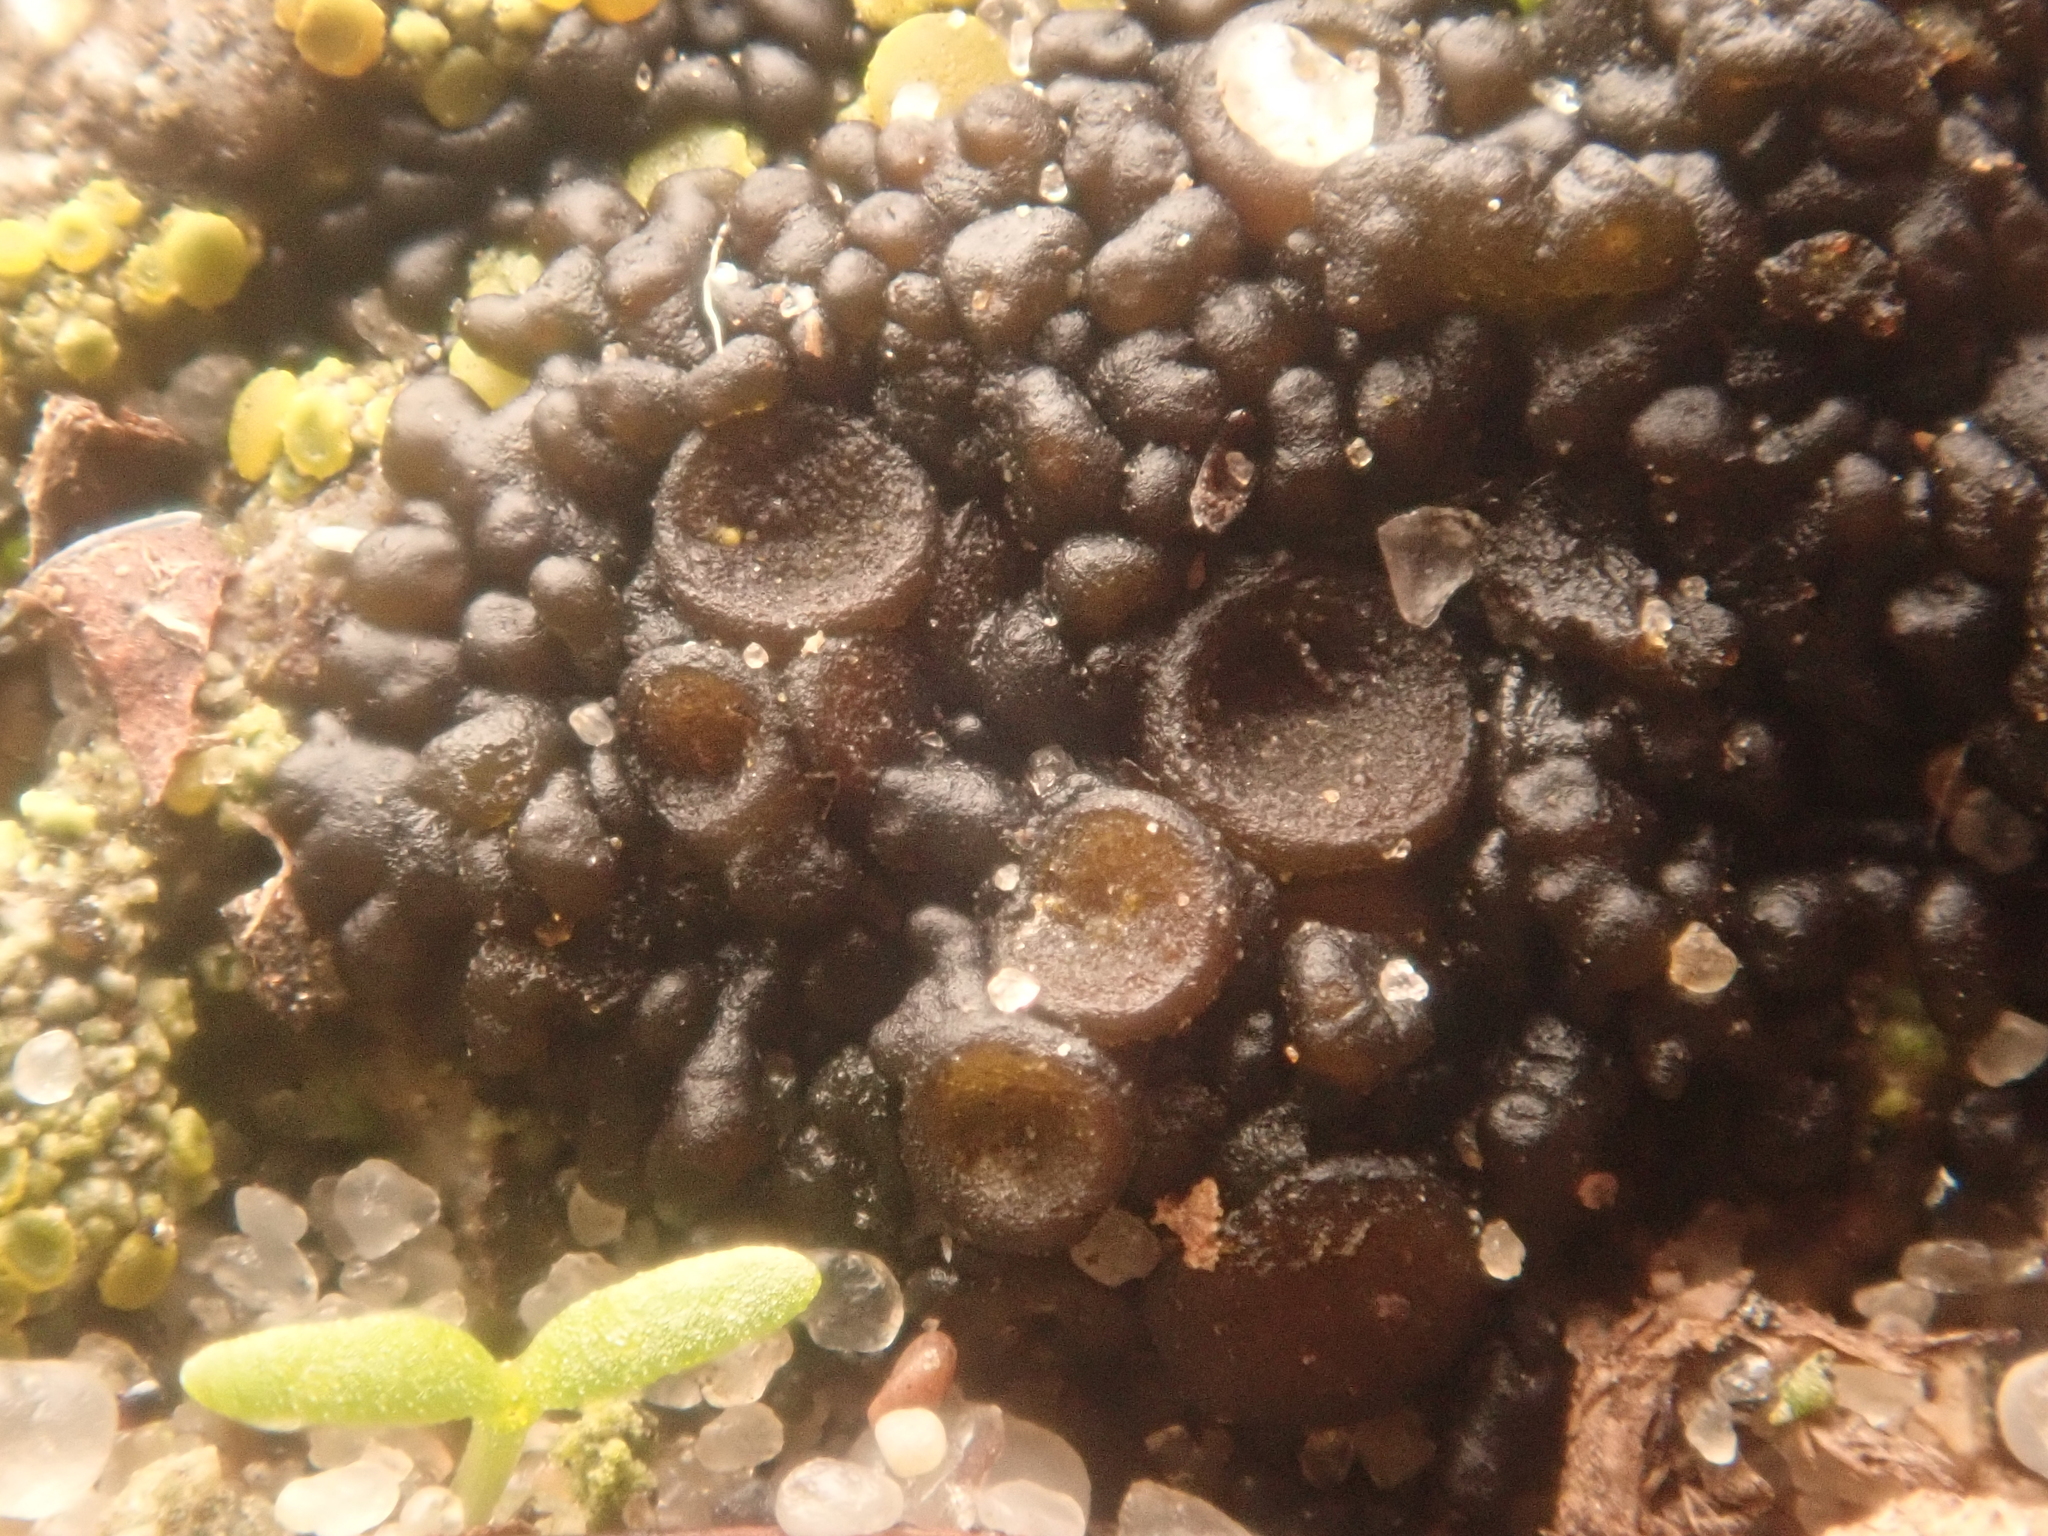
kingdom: Fungi
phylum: Ascomycota
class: Lecanoromycetes
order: Peltigerales
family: Collemataceae
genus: Enchylium
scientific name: Enchylium tenax
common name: Jelly lichen
